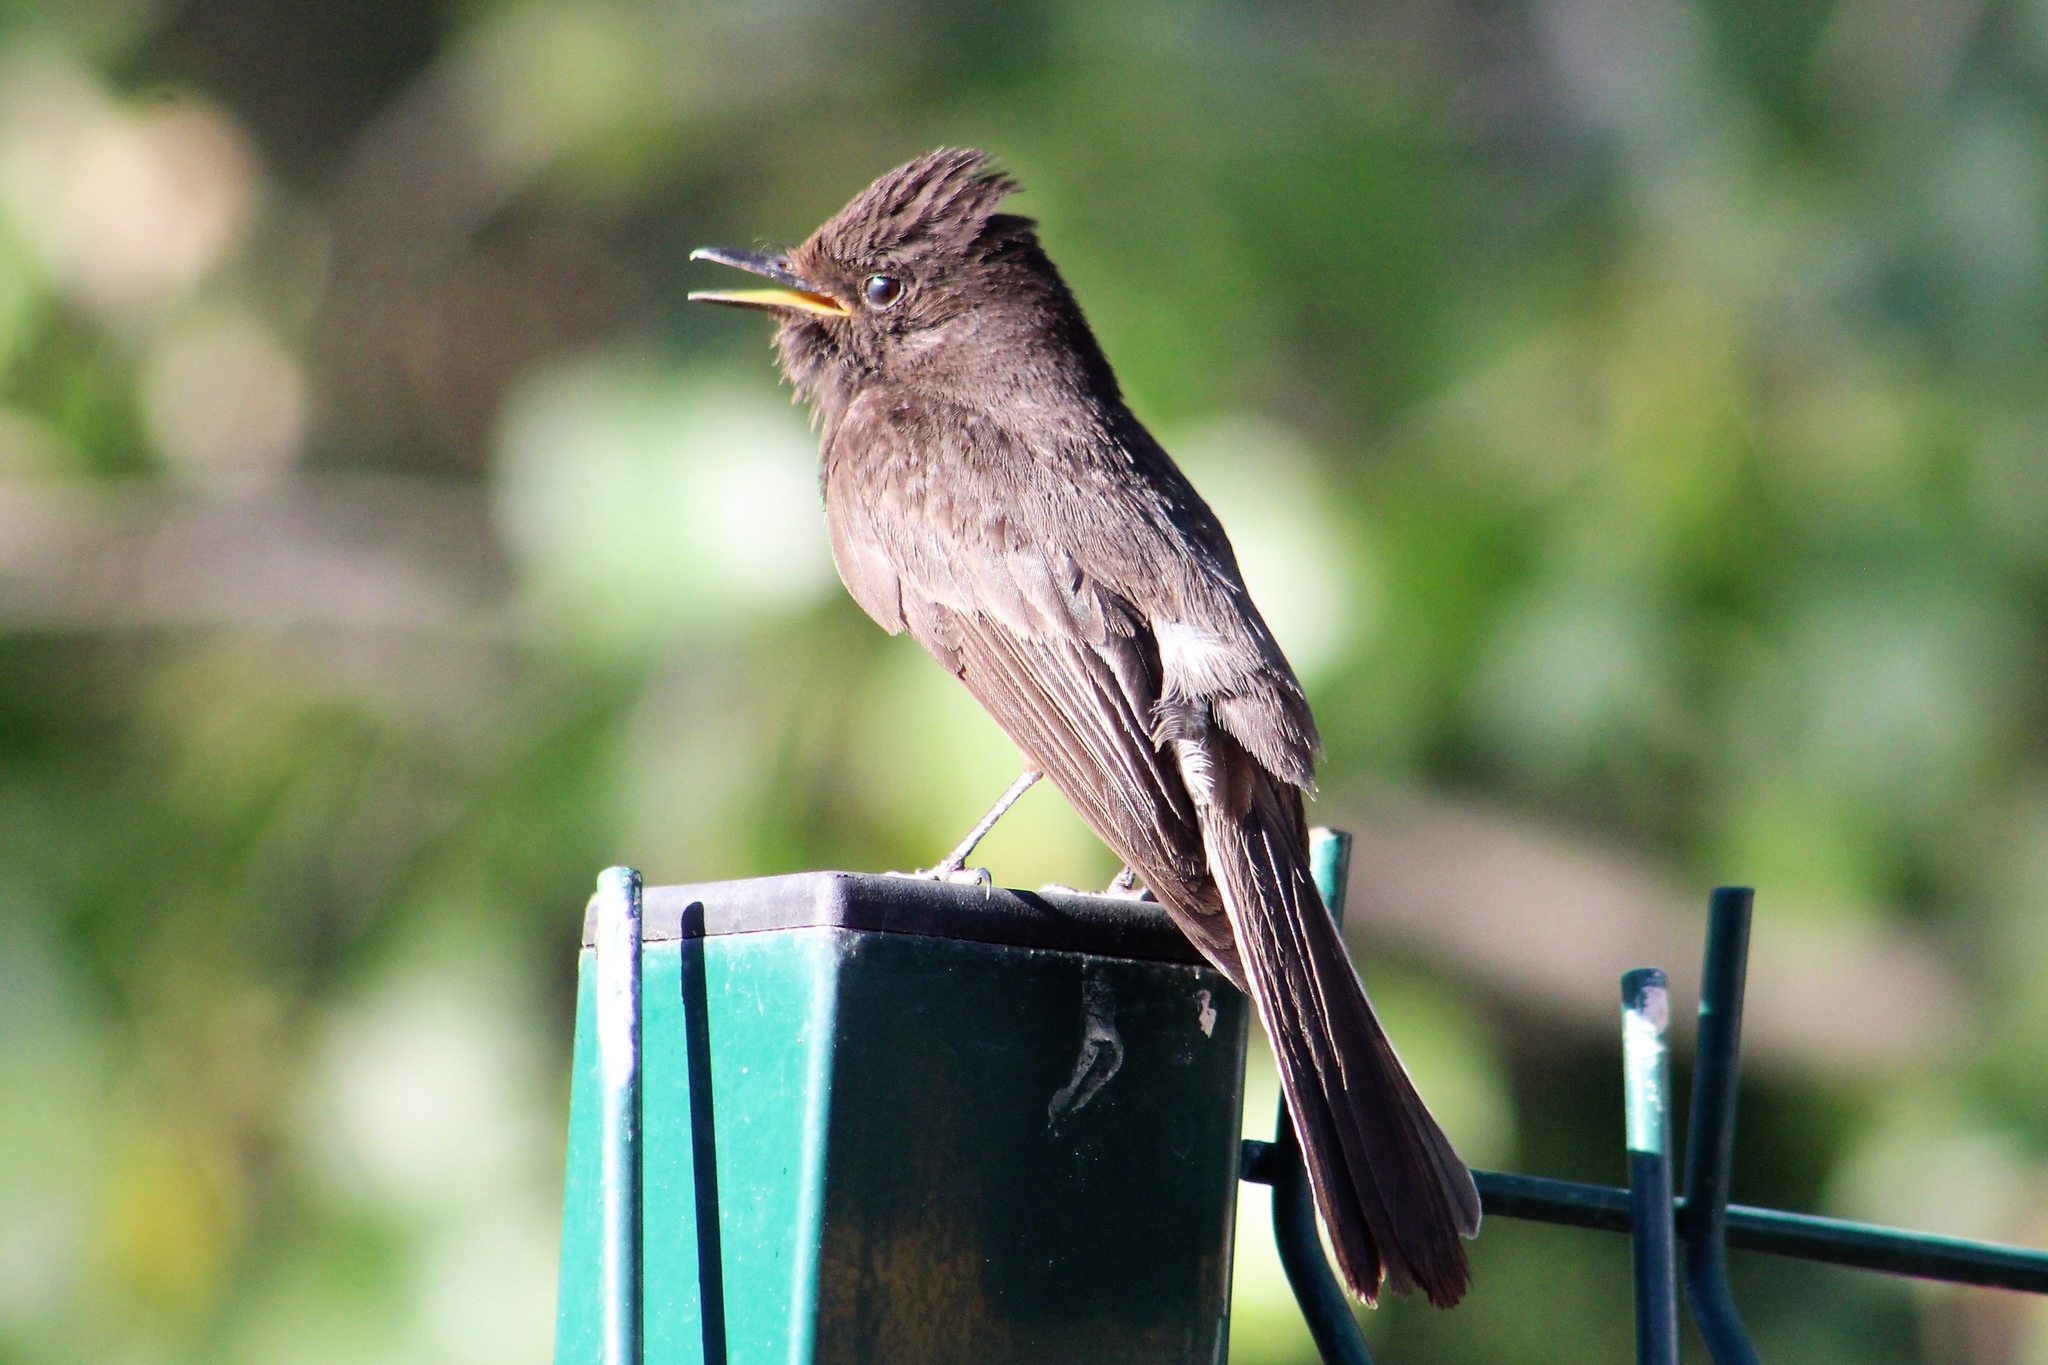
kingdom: Animalia
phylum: Chordata
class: Aves
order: Passeriformes
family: Tyrannidae
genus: Sayornis
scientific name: Sayornis nigricans
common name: Black phoebe
